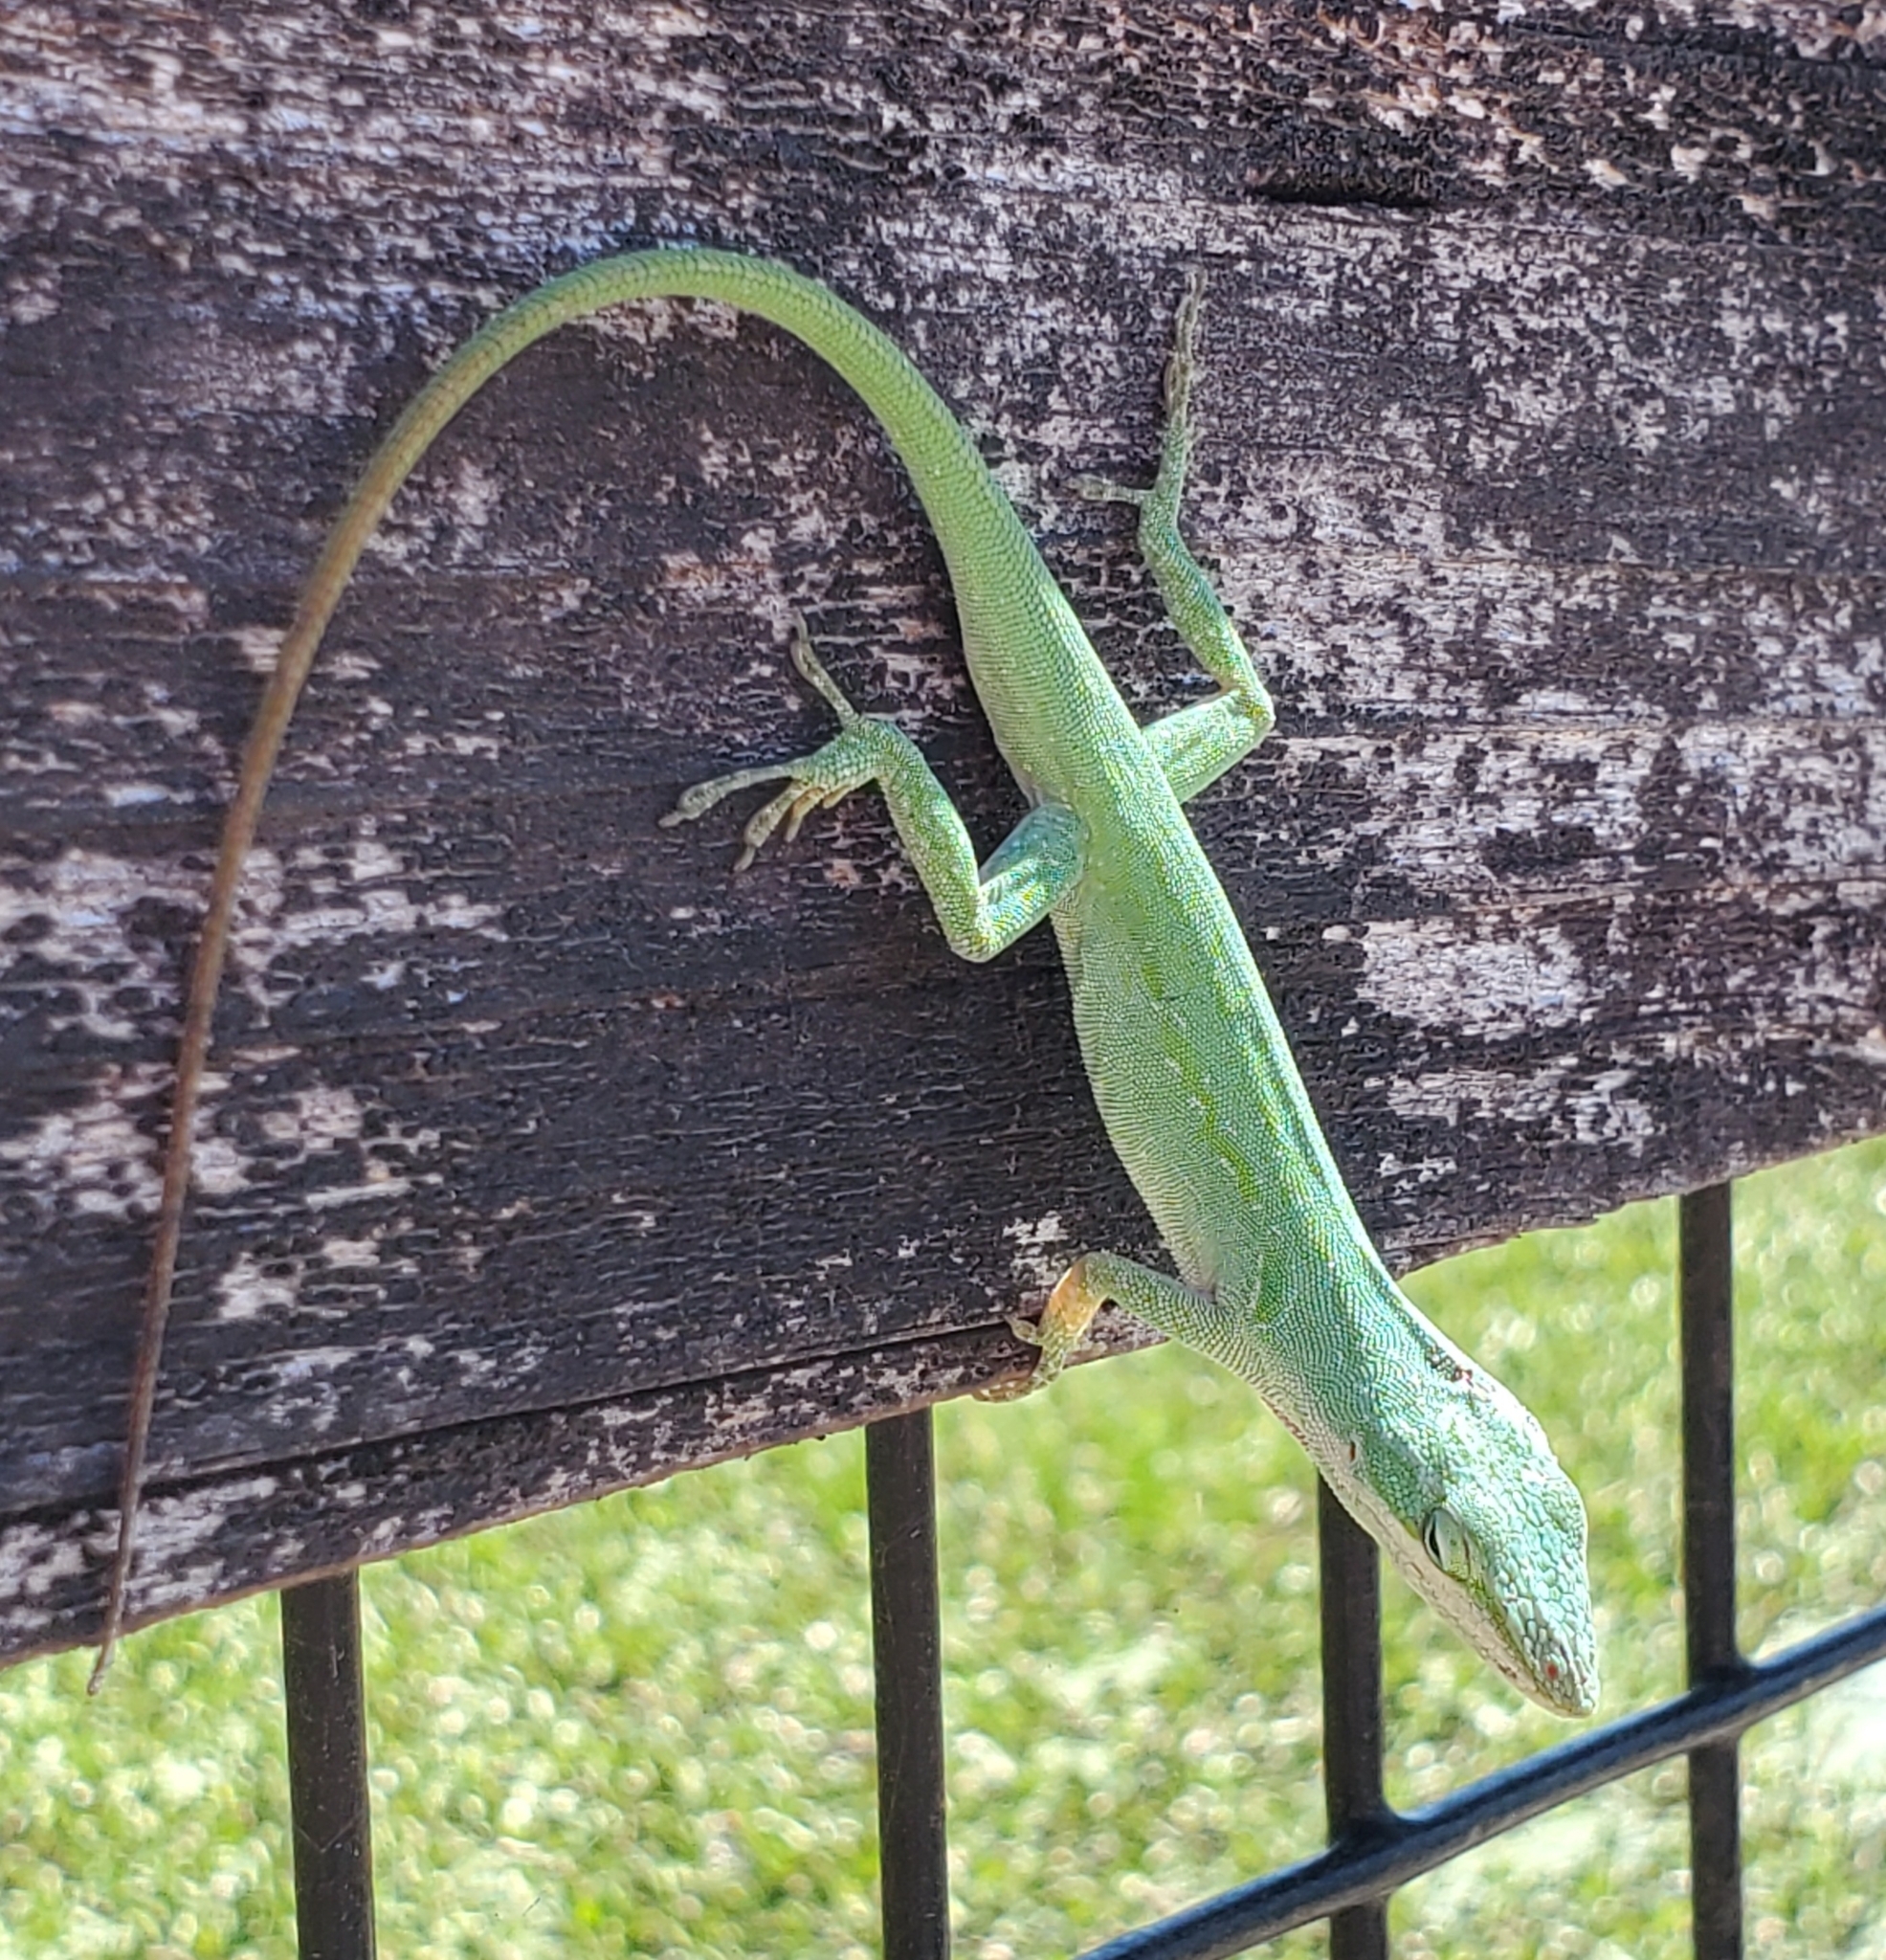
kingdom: Animalia
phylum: Chordata
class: Squamata
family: Dactyloidae
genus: Anolis
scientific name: Anolis carolinensis
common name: Green anole
